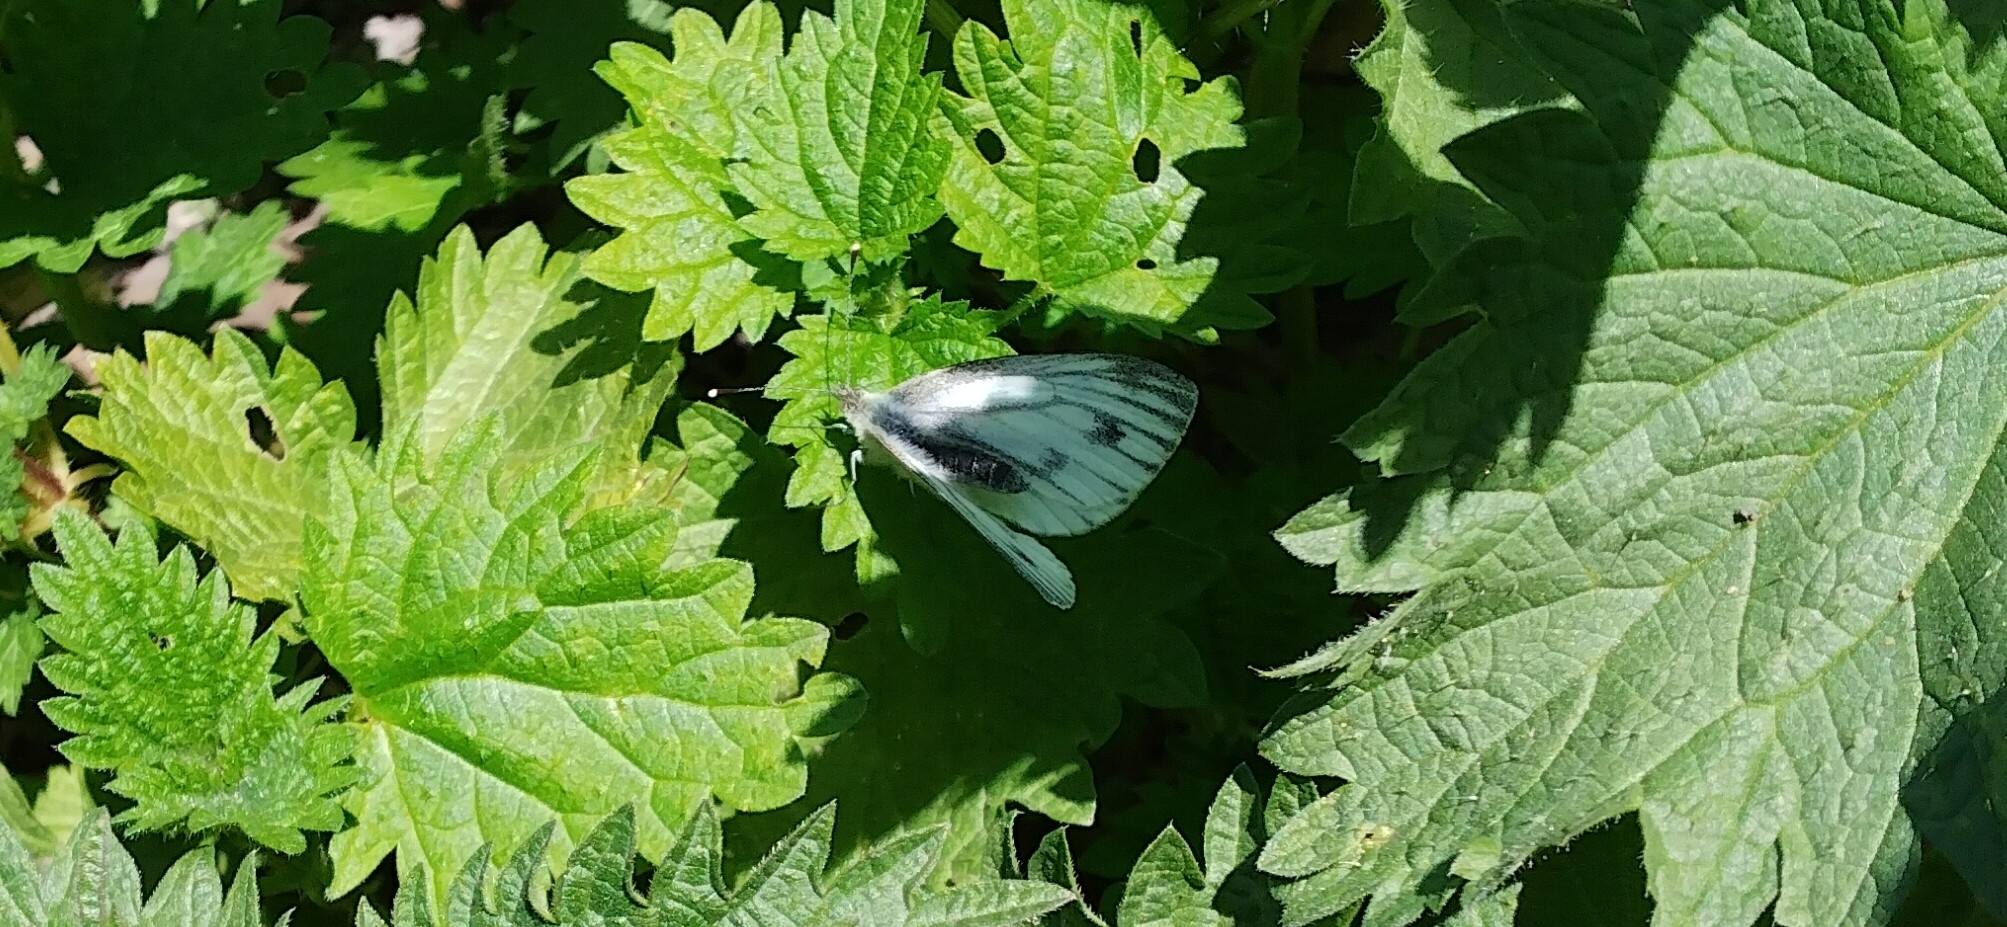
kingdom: Animalia
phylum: Arthropoda
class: Insecta
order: Lepidoptera
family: Pieridae
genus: Pieris
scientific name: Pieris napi
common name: Green-veined white
